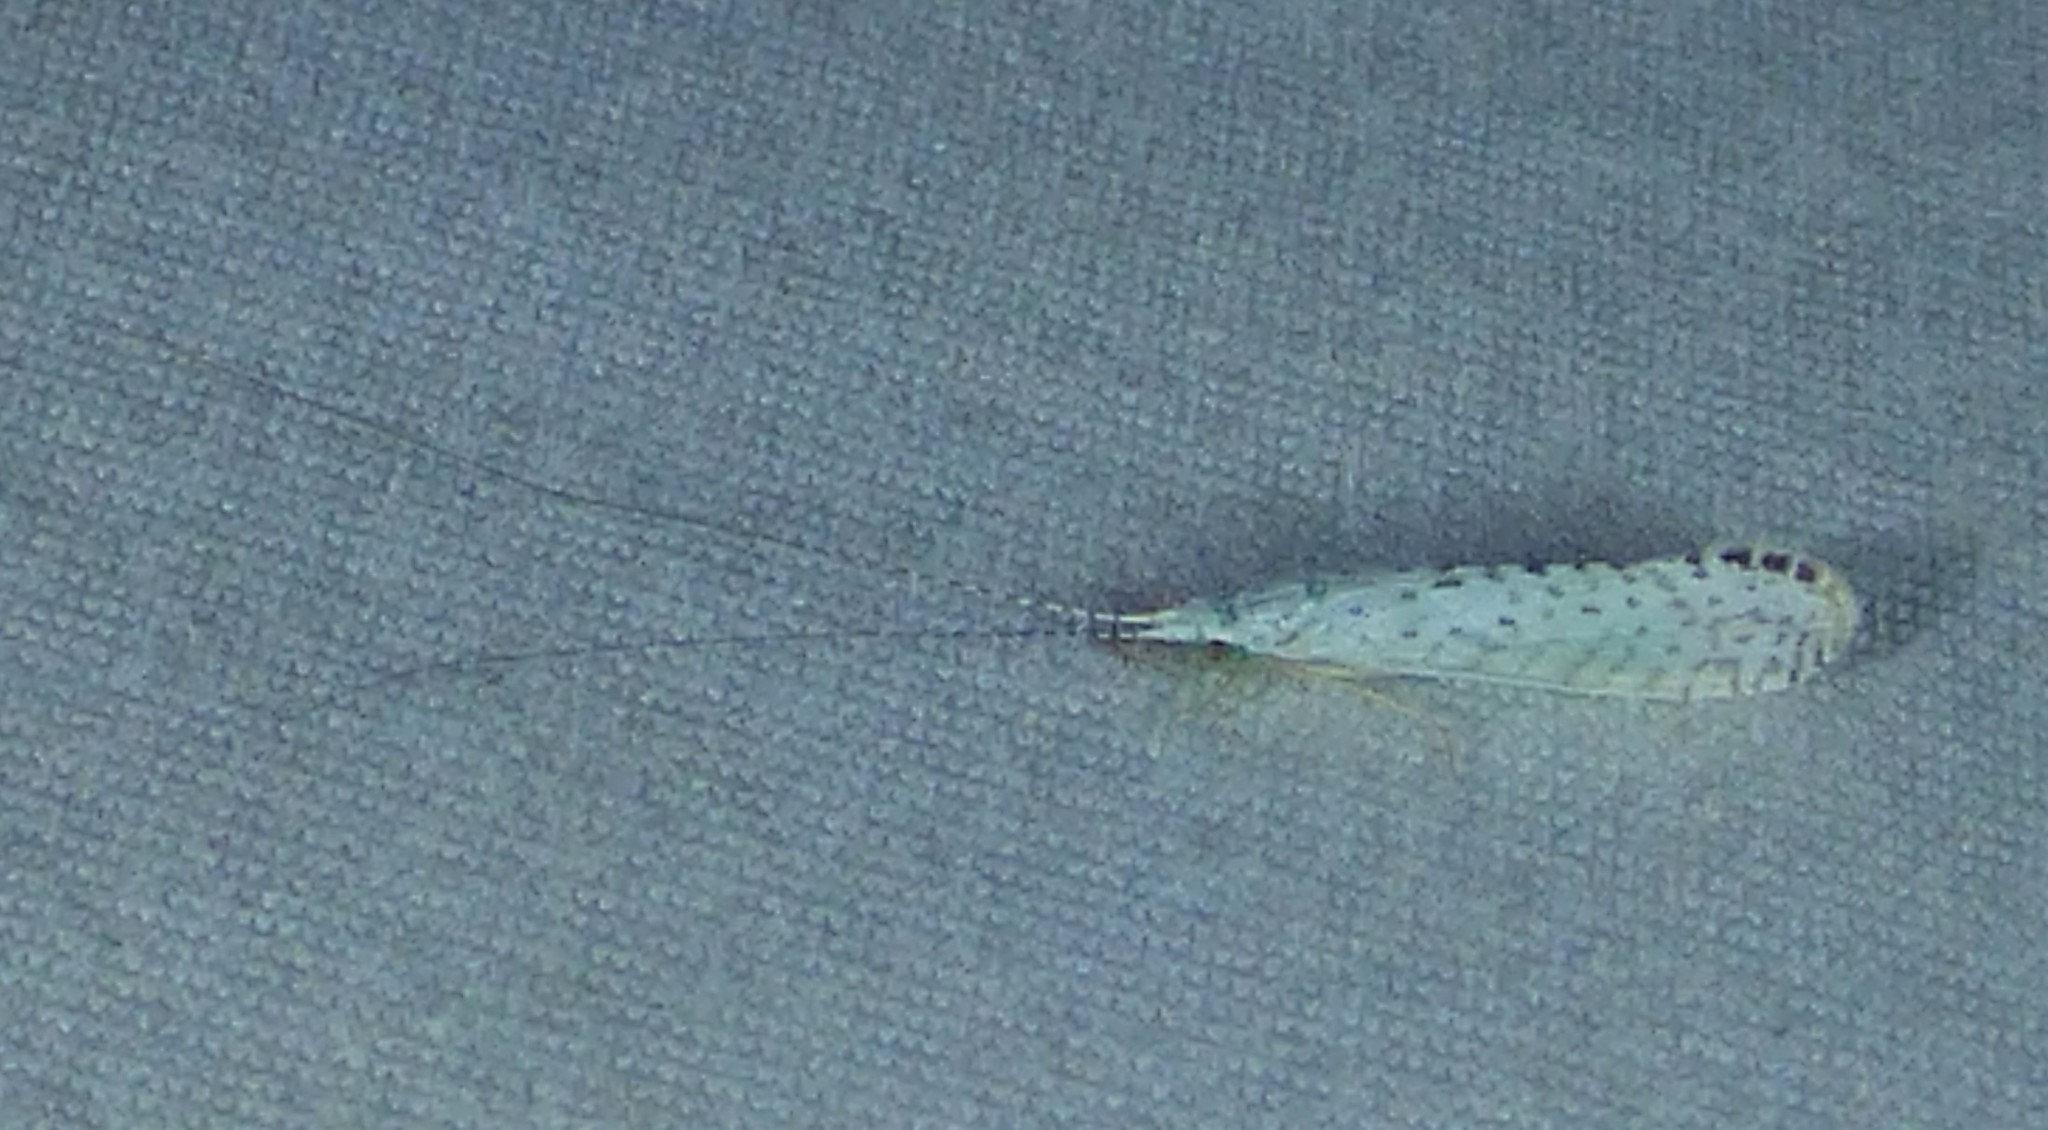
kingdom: Animalia
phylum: Arthropoda
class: Insecta
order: Trichoptera
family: Leptoceridae
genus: Nectopsyche
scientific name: Nectopsyche candida
